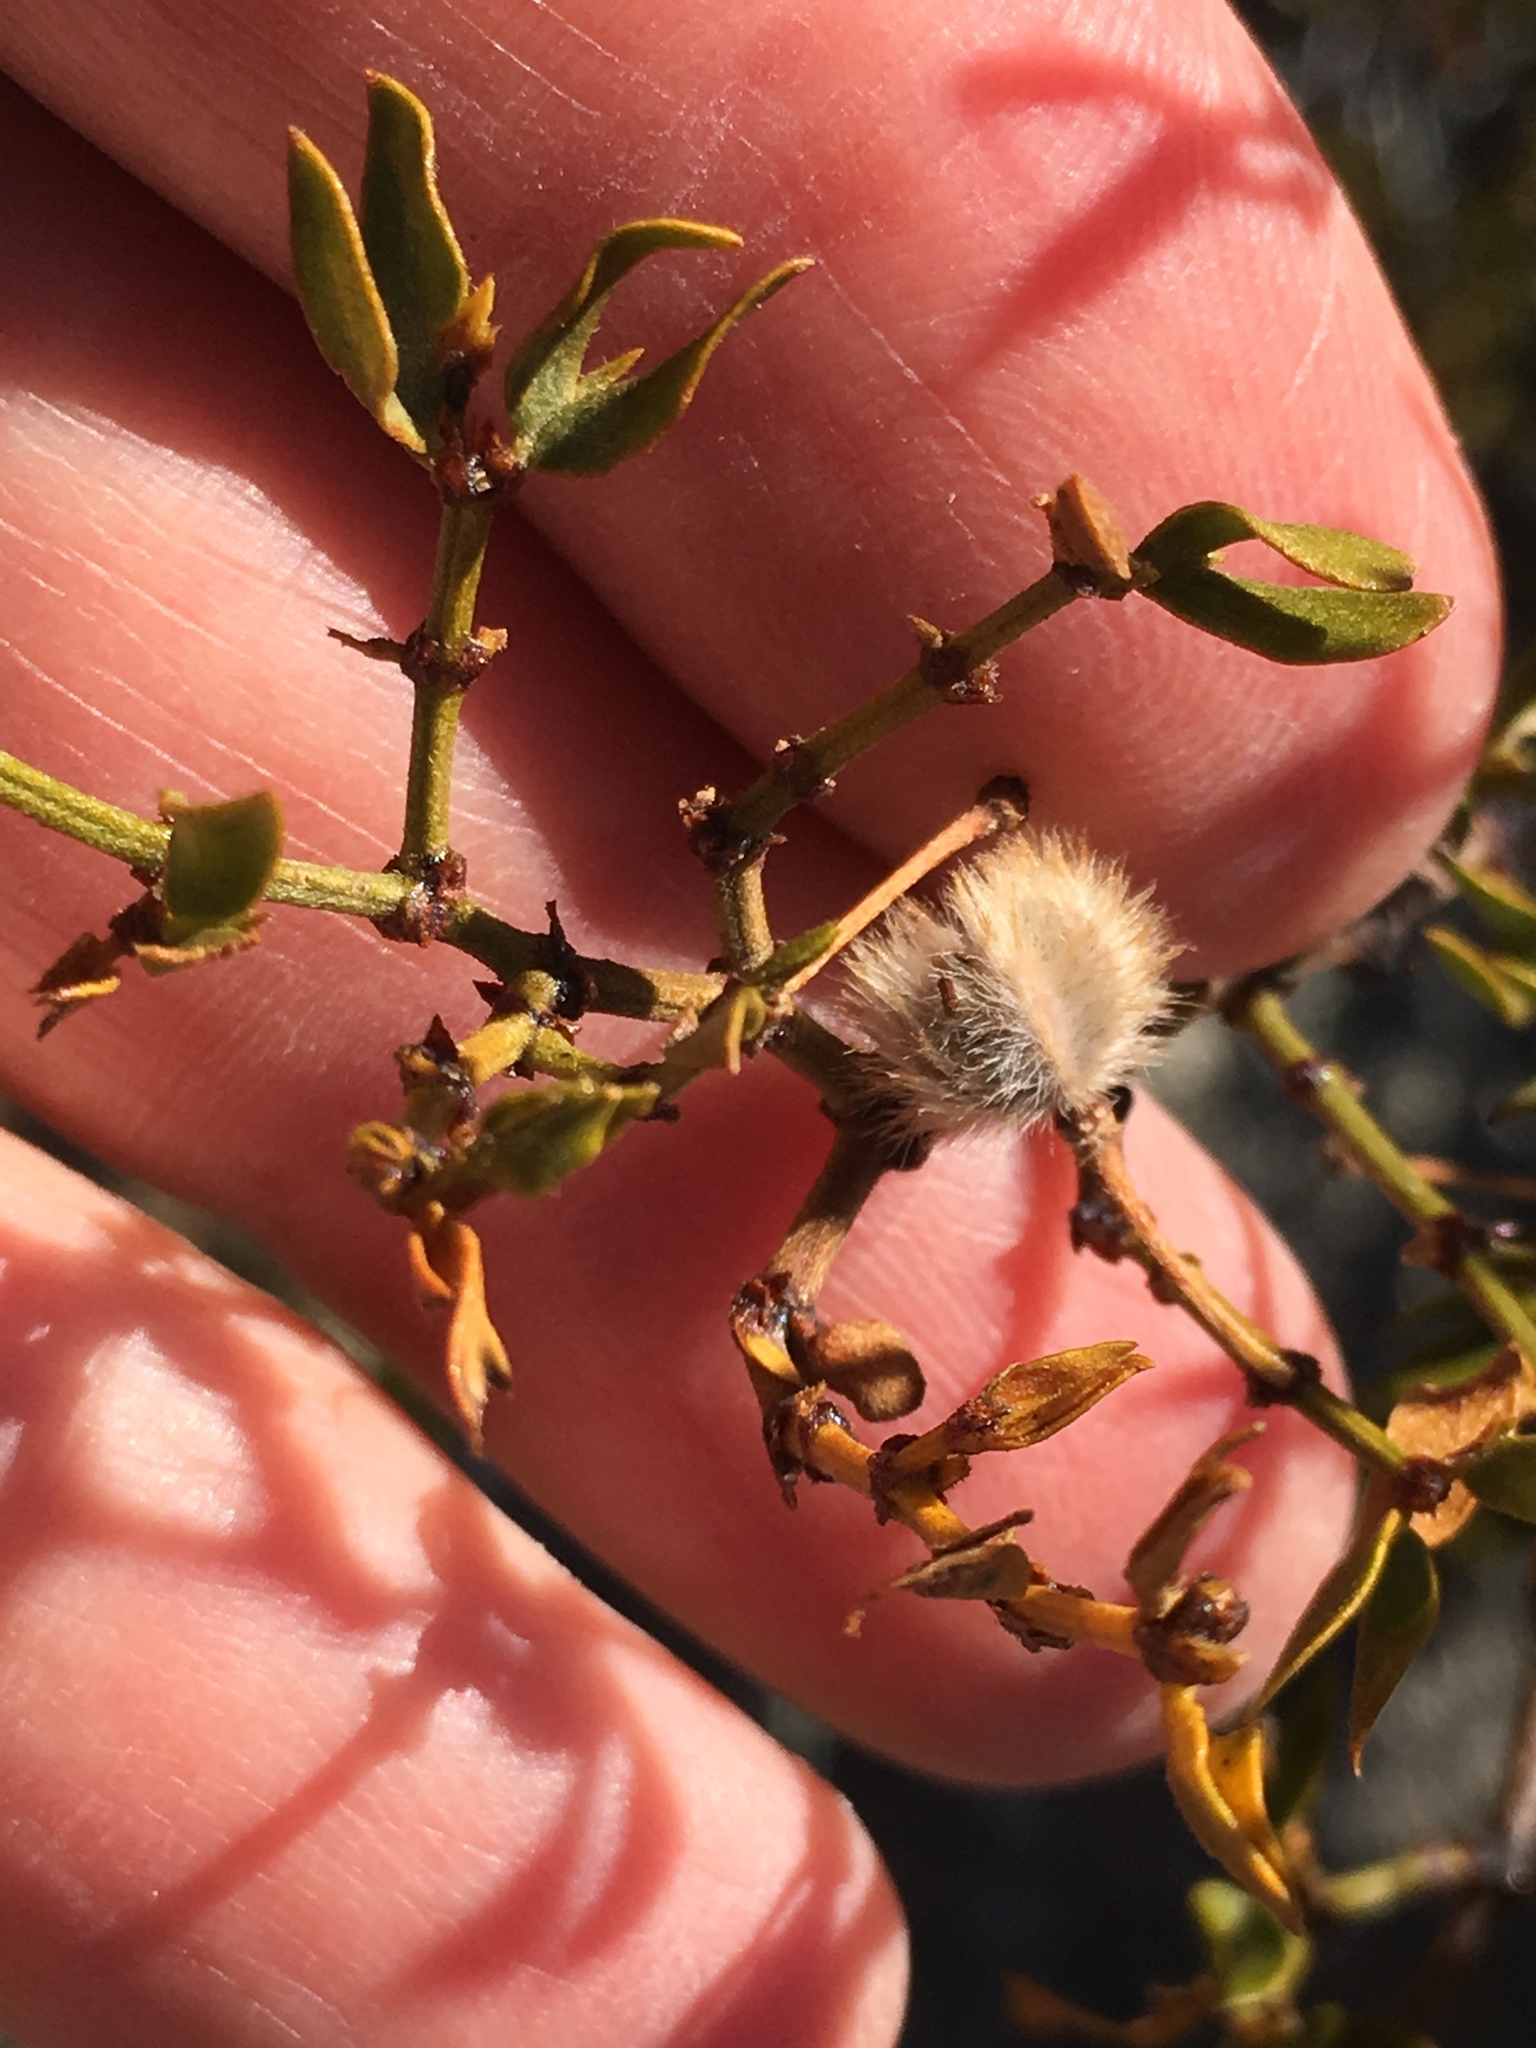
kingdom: Plantae
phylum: Tracheophyta
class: Magnoliopsida
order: Zygophyllales
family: Zygophyllaceae
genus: Larrea
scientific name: Larrea tridentata
